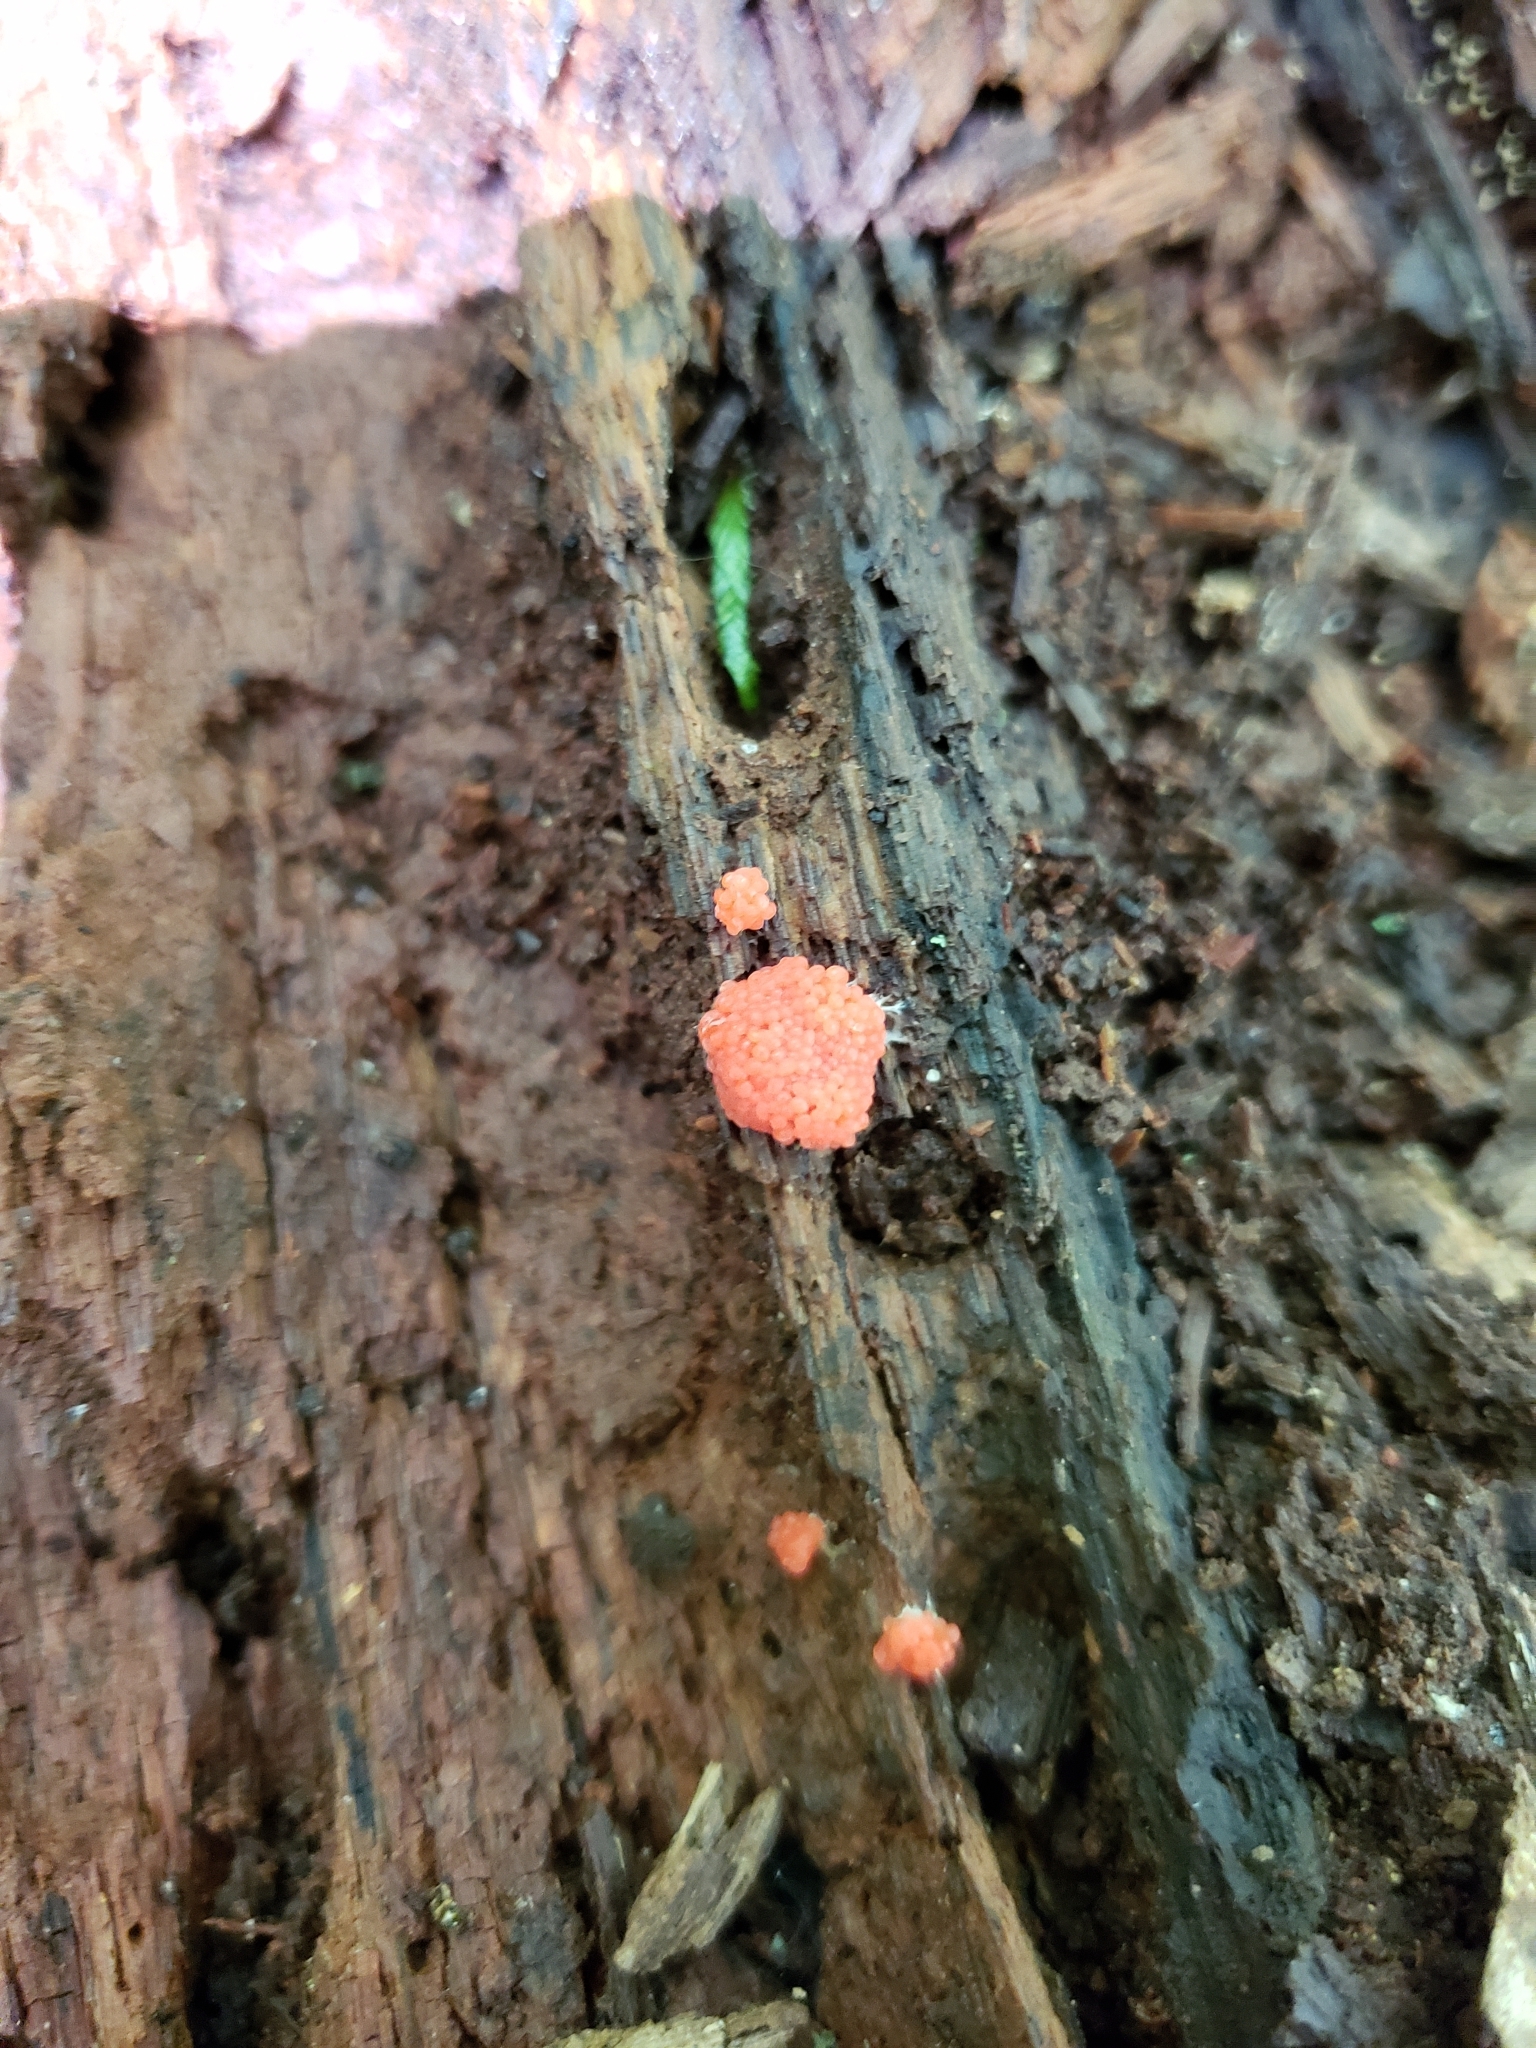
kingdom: Protozoa
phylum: Mycetozoa
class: Myxomycetes
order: Cribrariales
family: Tubiferaceae
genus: Tubifera
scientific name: Tubifera ferruginosa
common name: Red raspberry slime mold
